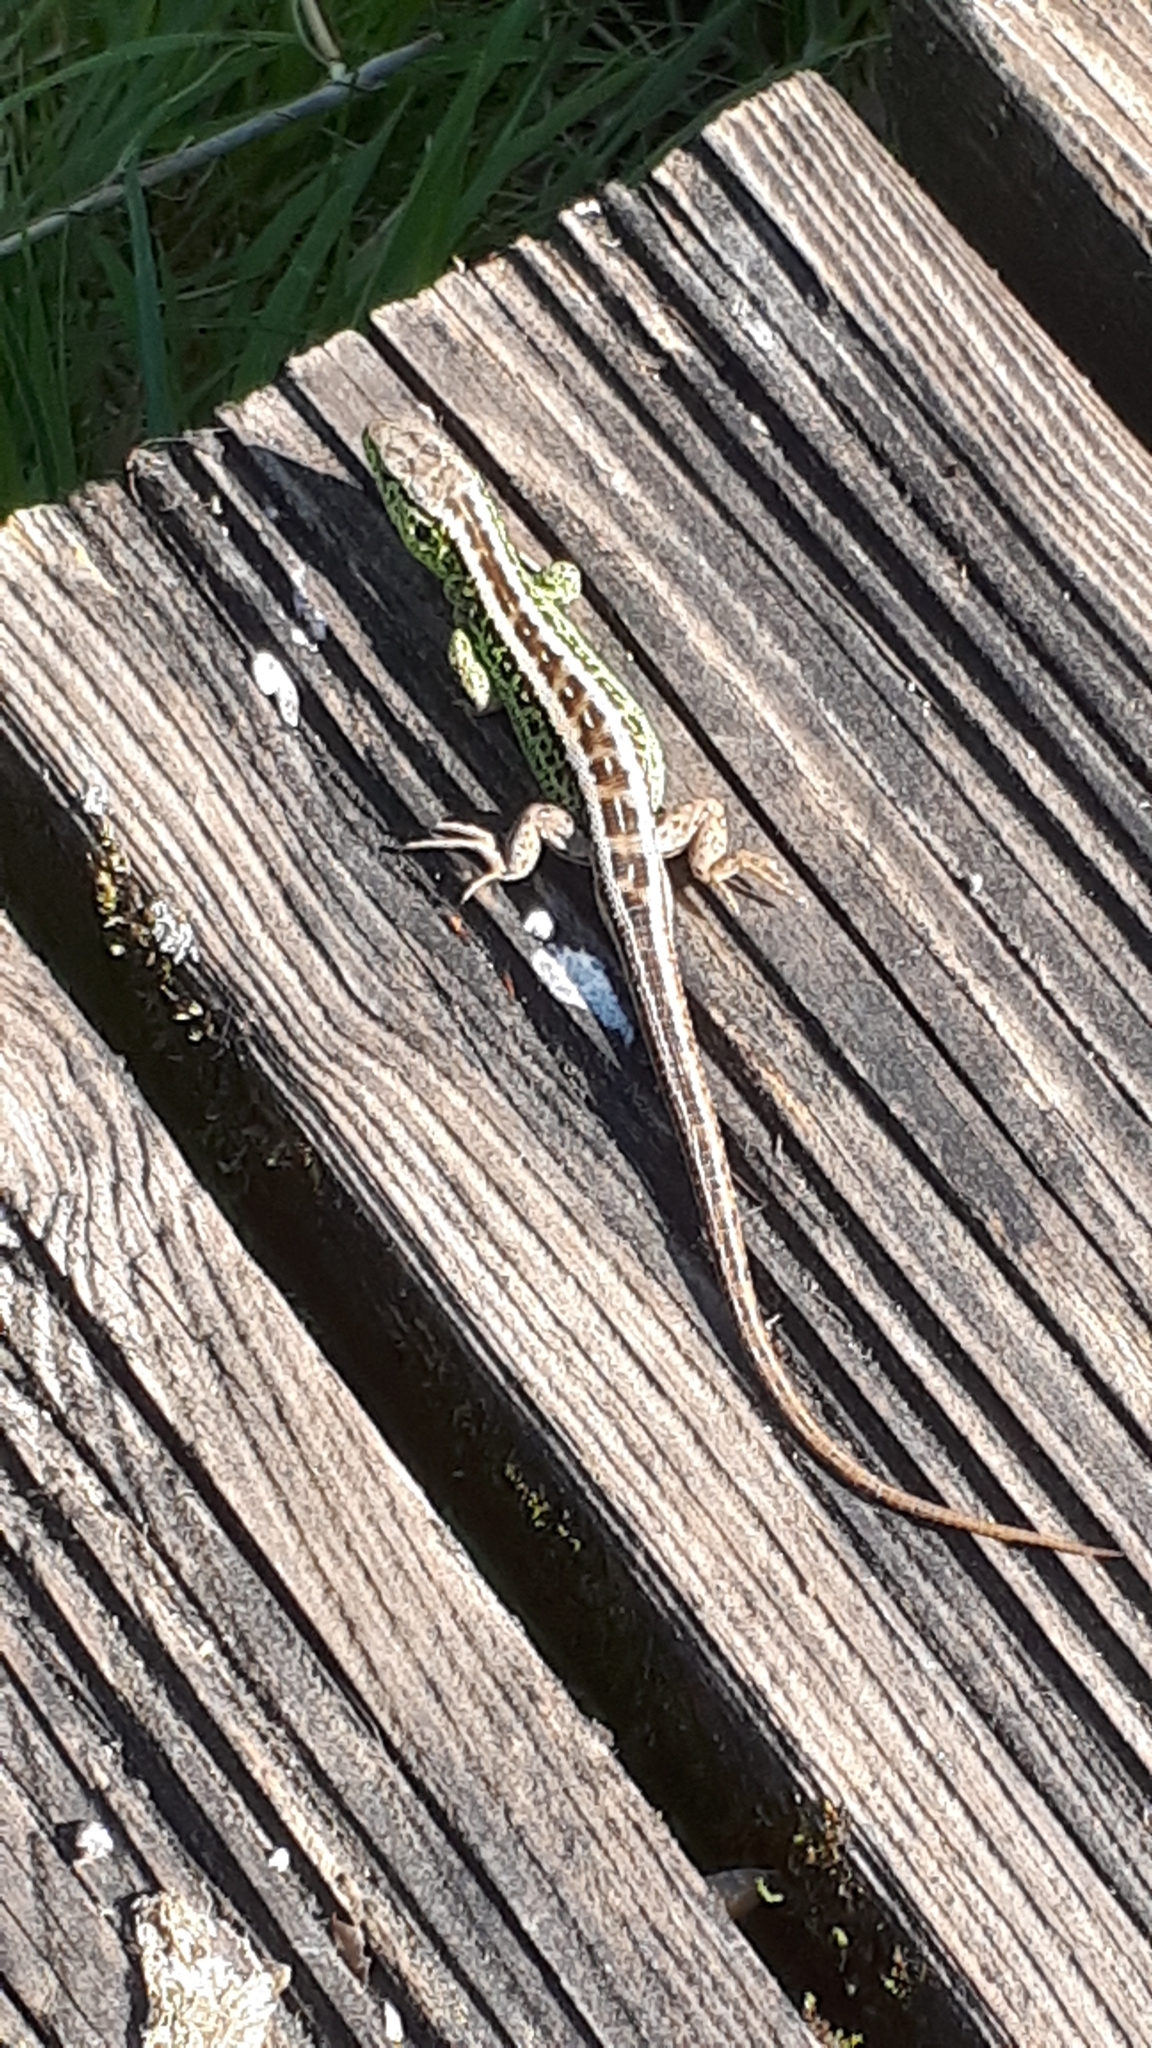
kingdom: Animalia
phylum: Chordata
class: Squamata
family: Lacertidae
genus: Lacerta
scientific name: Lacerta agilis
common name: Sand lizard
